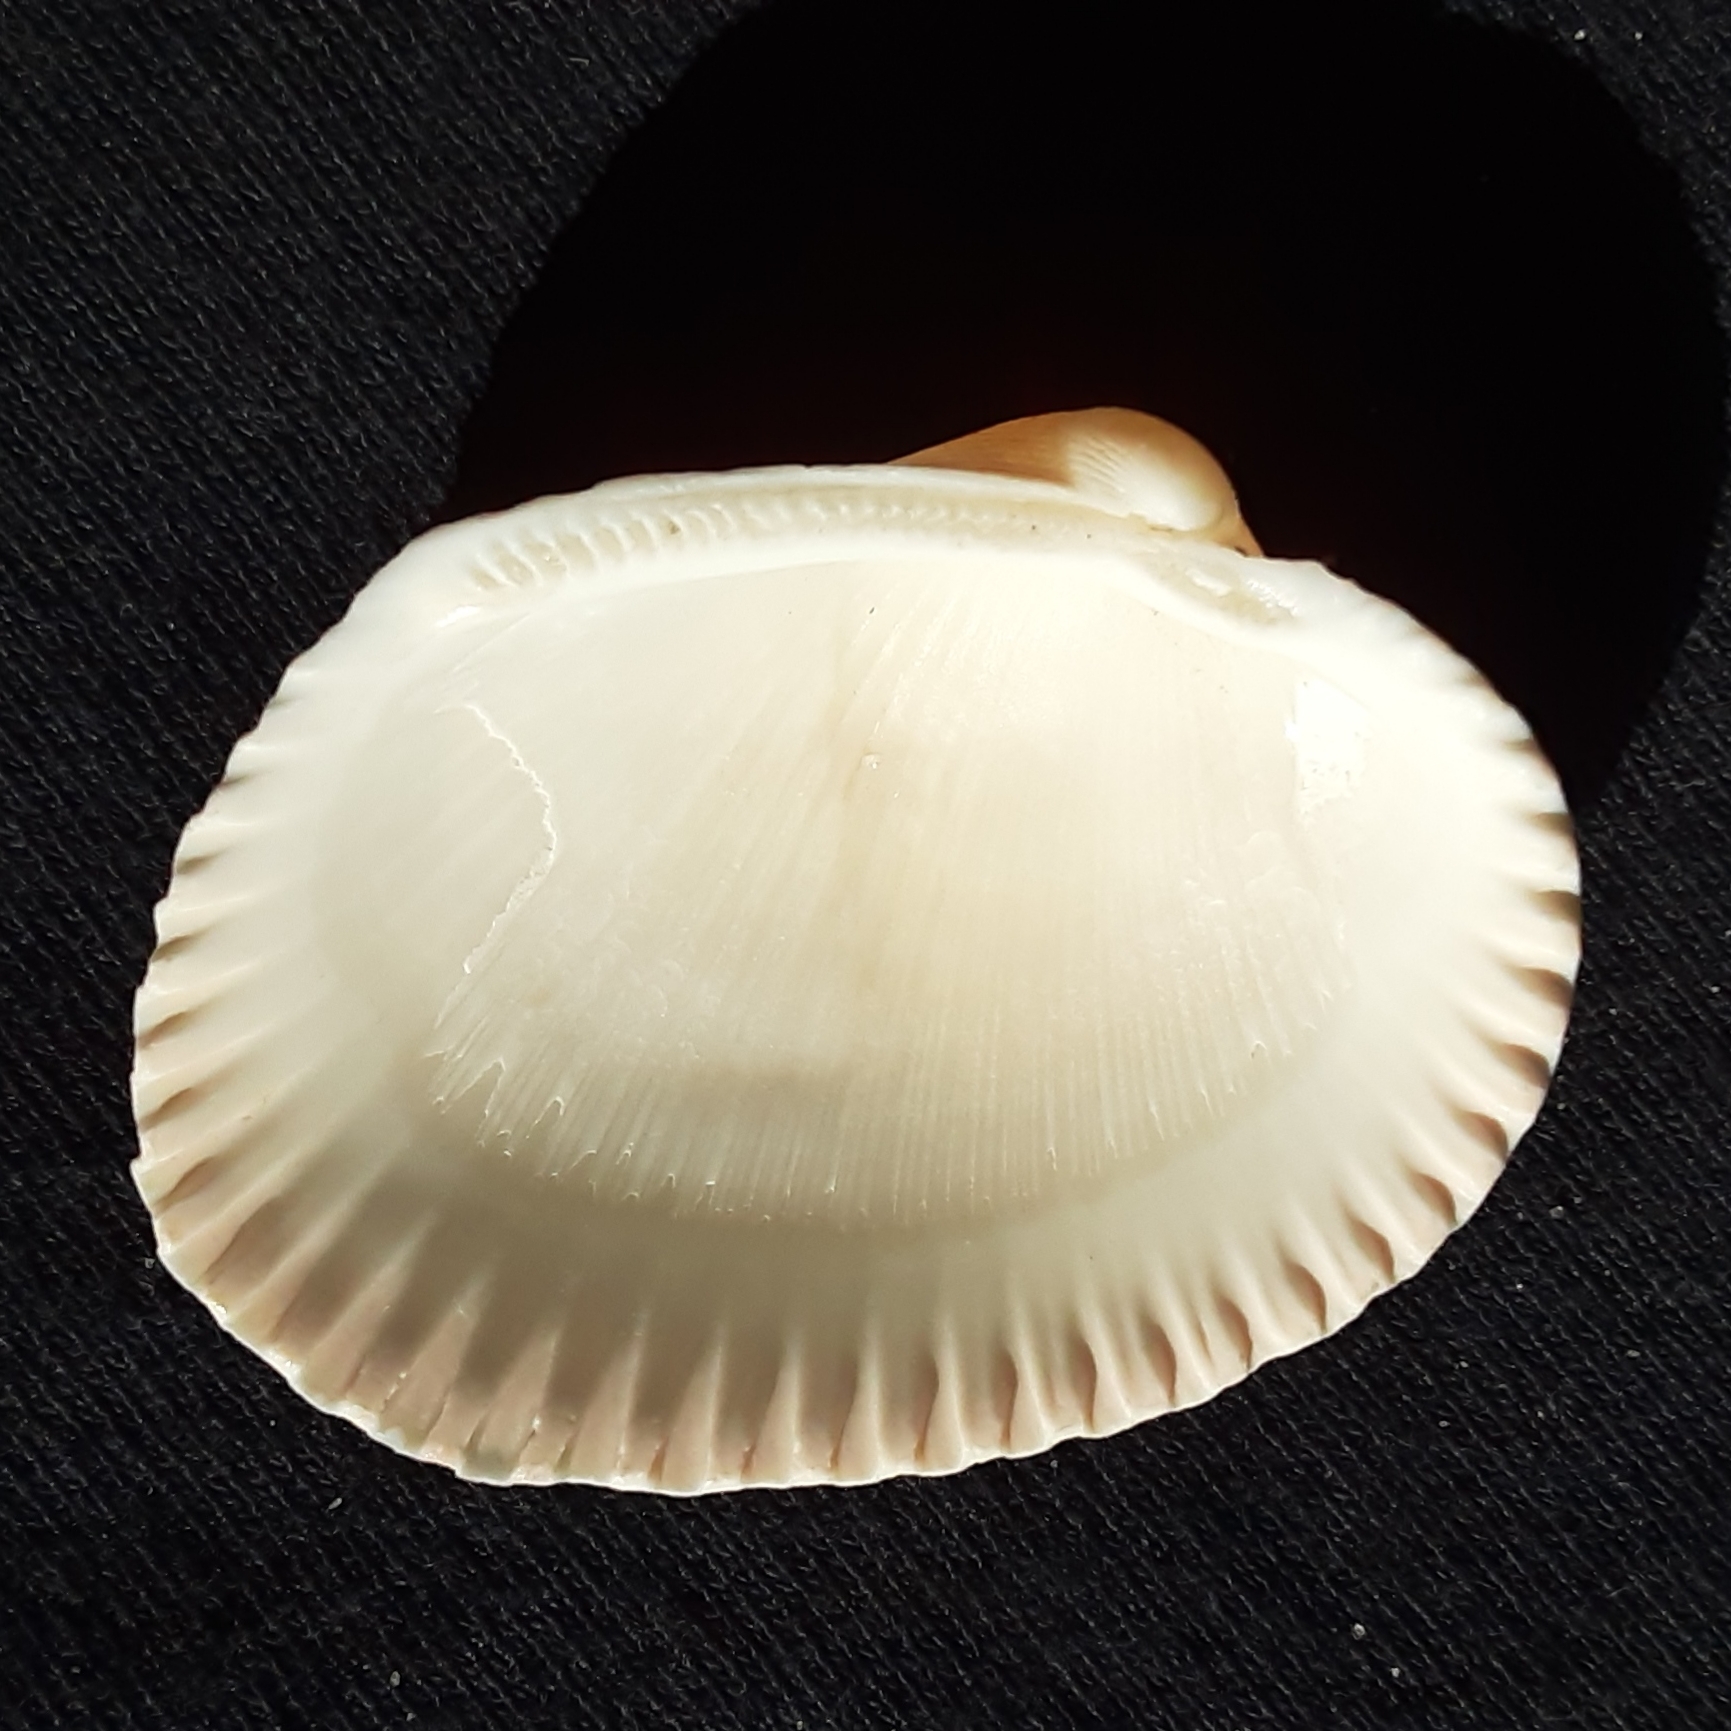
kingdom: Animalia
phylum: Mollusca
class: Bivalvia
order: Arcida
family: Arcidae
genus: Lunarca
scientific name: Lunarca ovalis
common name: Blood ark
